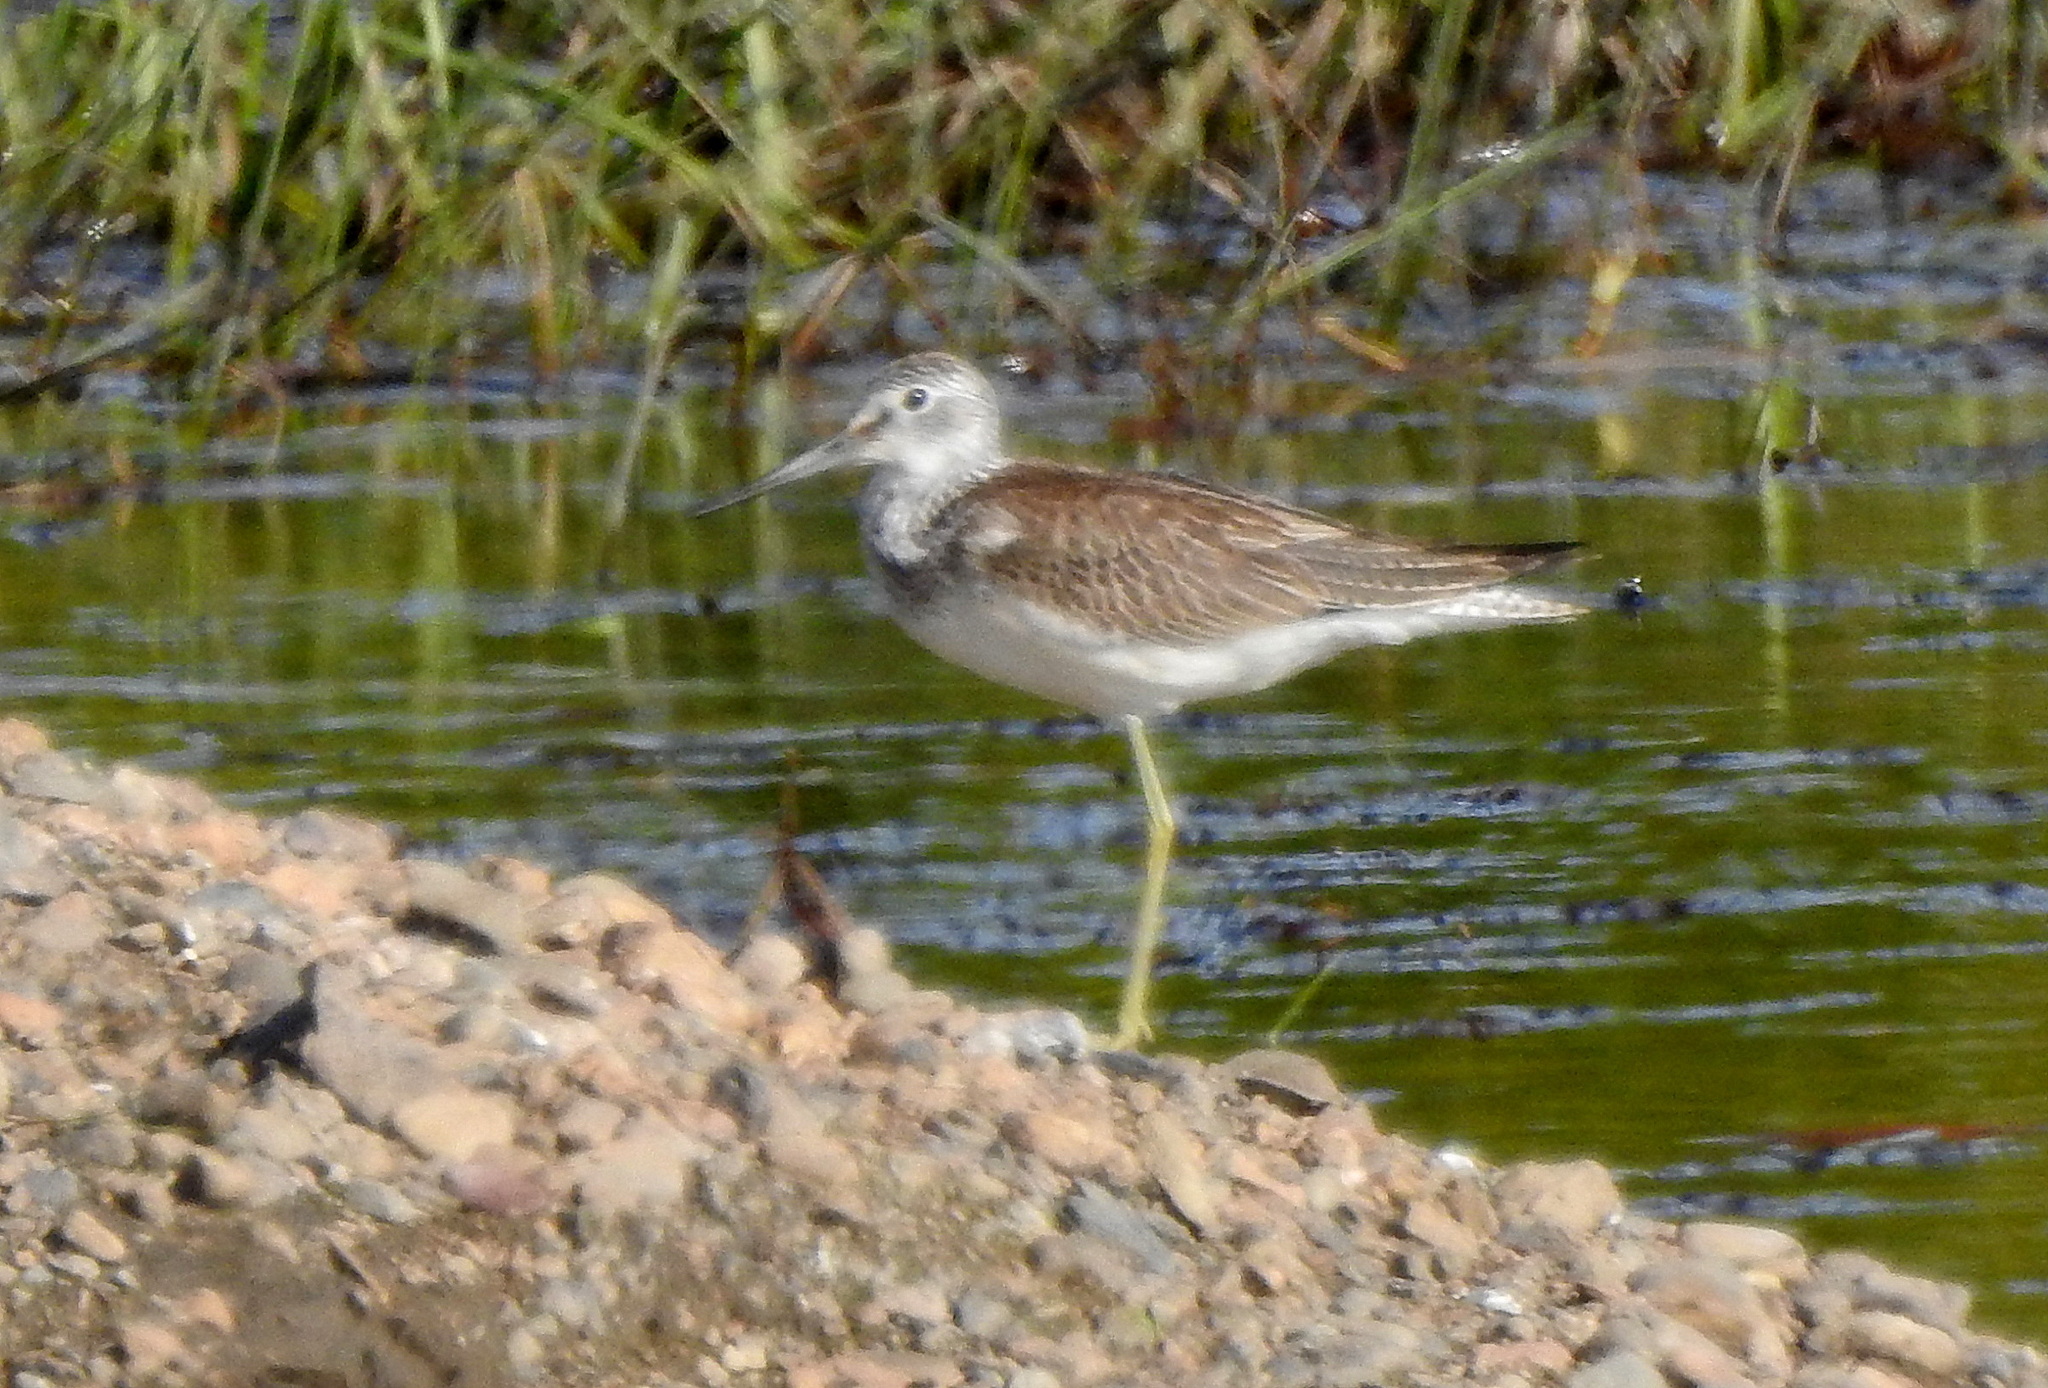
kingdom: Animalia
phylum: Chordata
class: Aves
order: Charadriiformes
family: Scolopacidae
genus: Tringa
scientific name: Tringa nebularia
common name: Common greenshank
